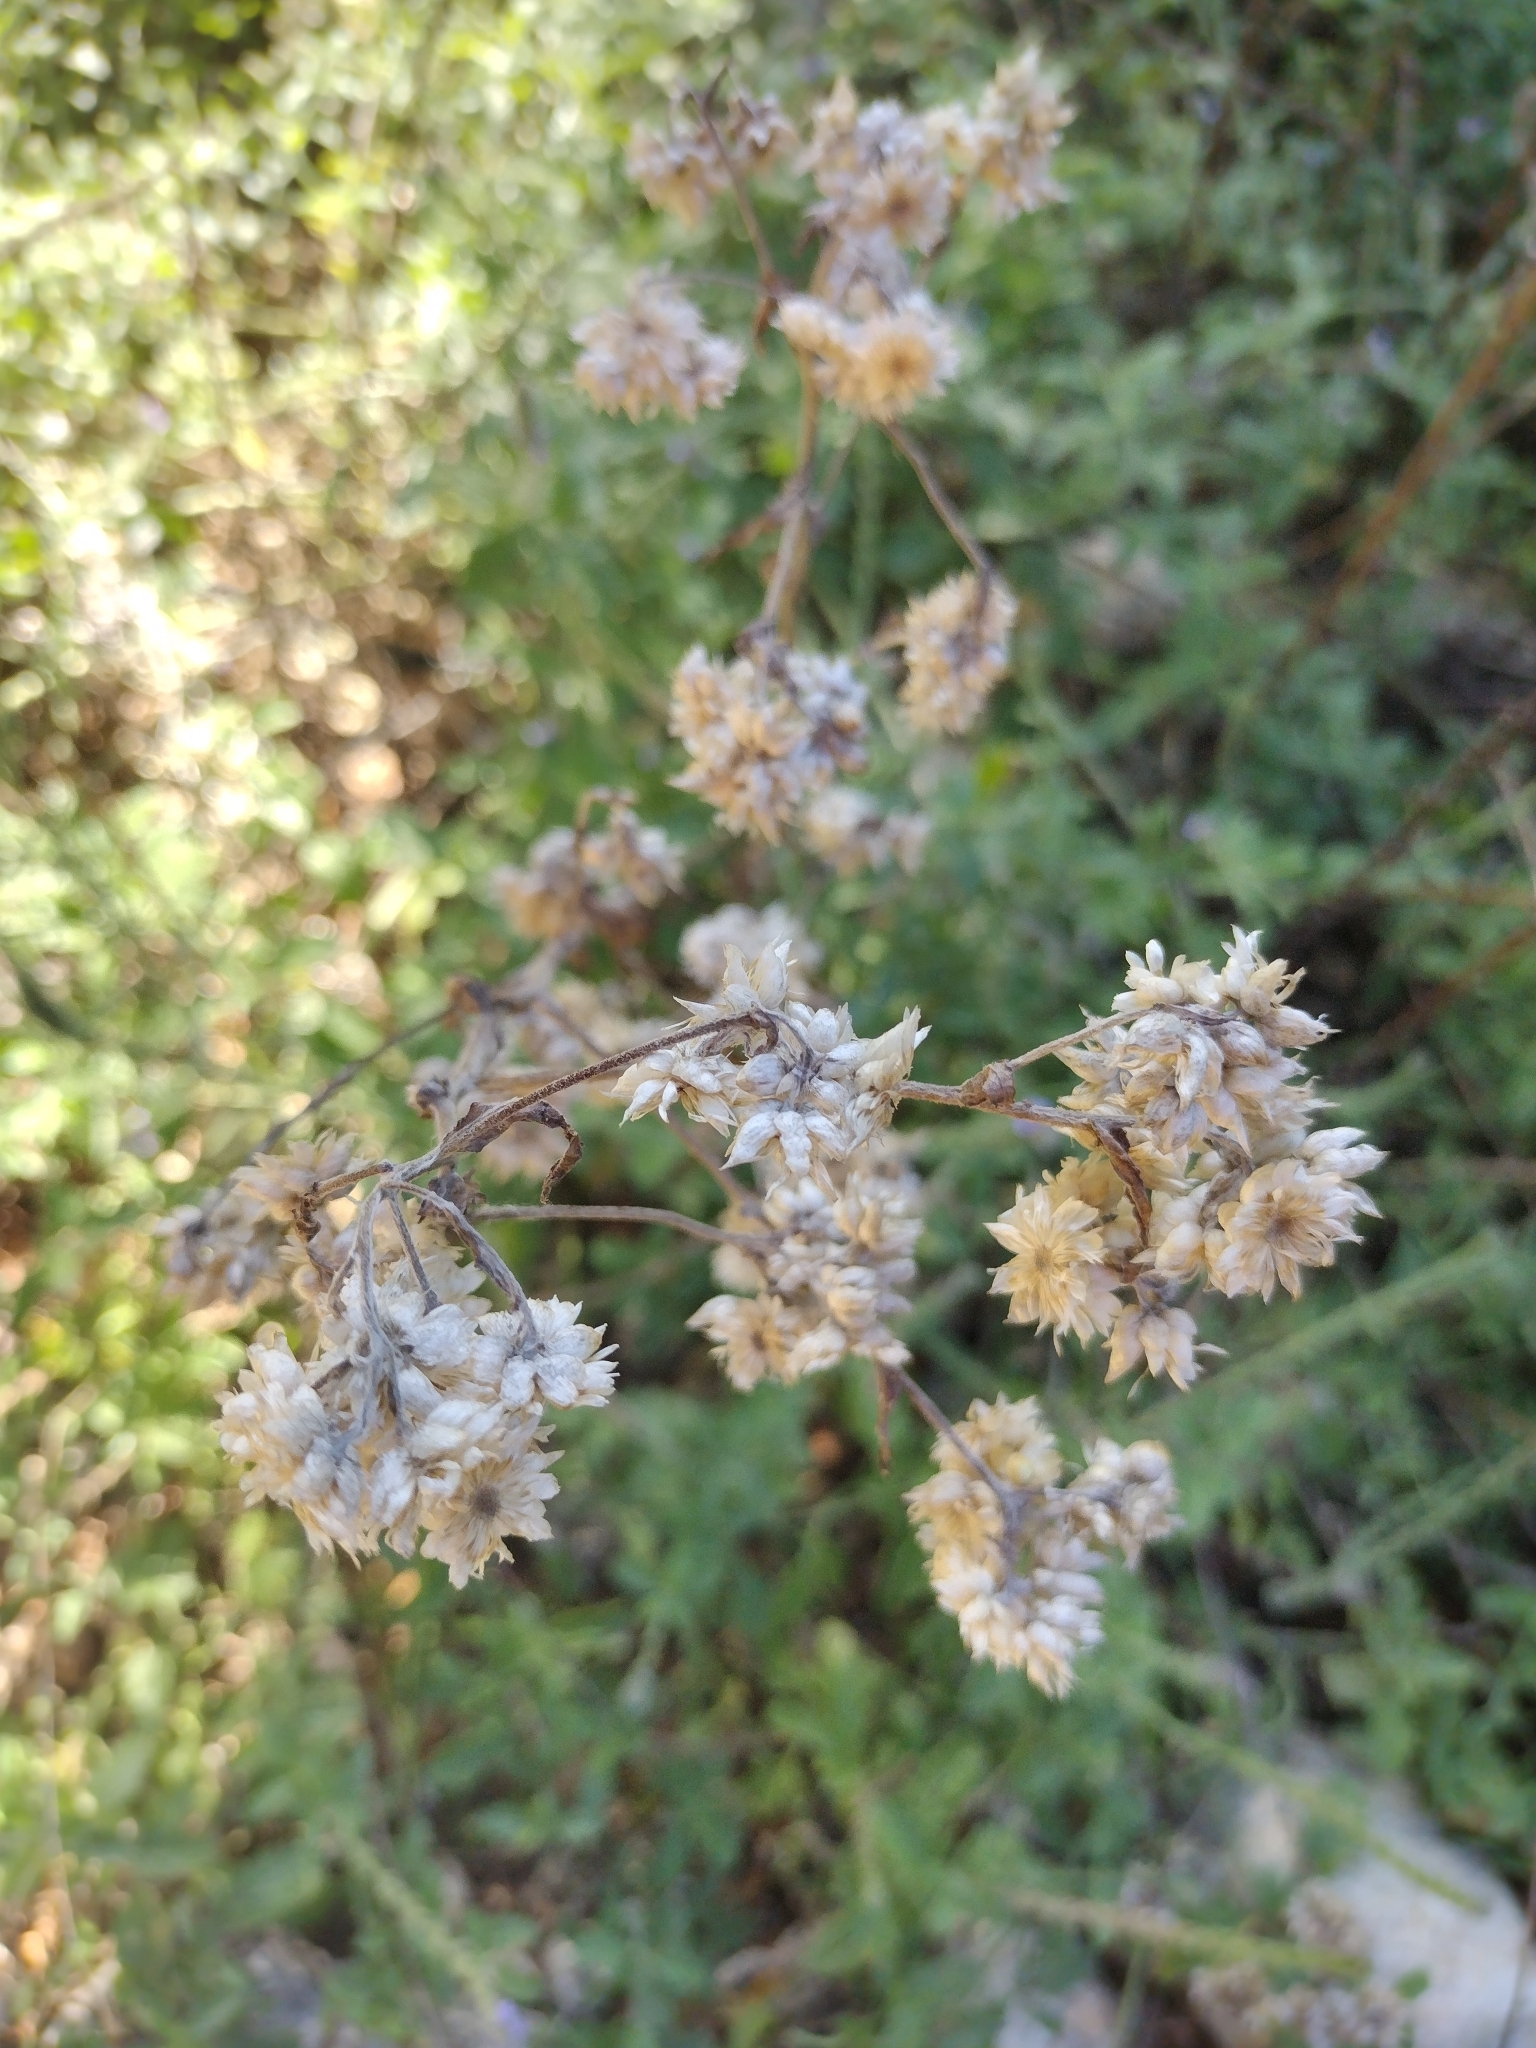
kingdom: Plantae
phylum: Tracheophyta
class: Magnoliopsida
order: Asterales
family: Asteraceae
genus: Pseudognaphalium
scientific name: Pseudognaphalium californicum
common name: California rabbit-tobacco
